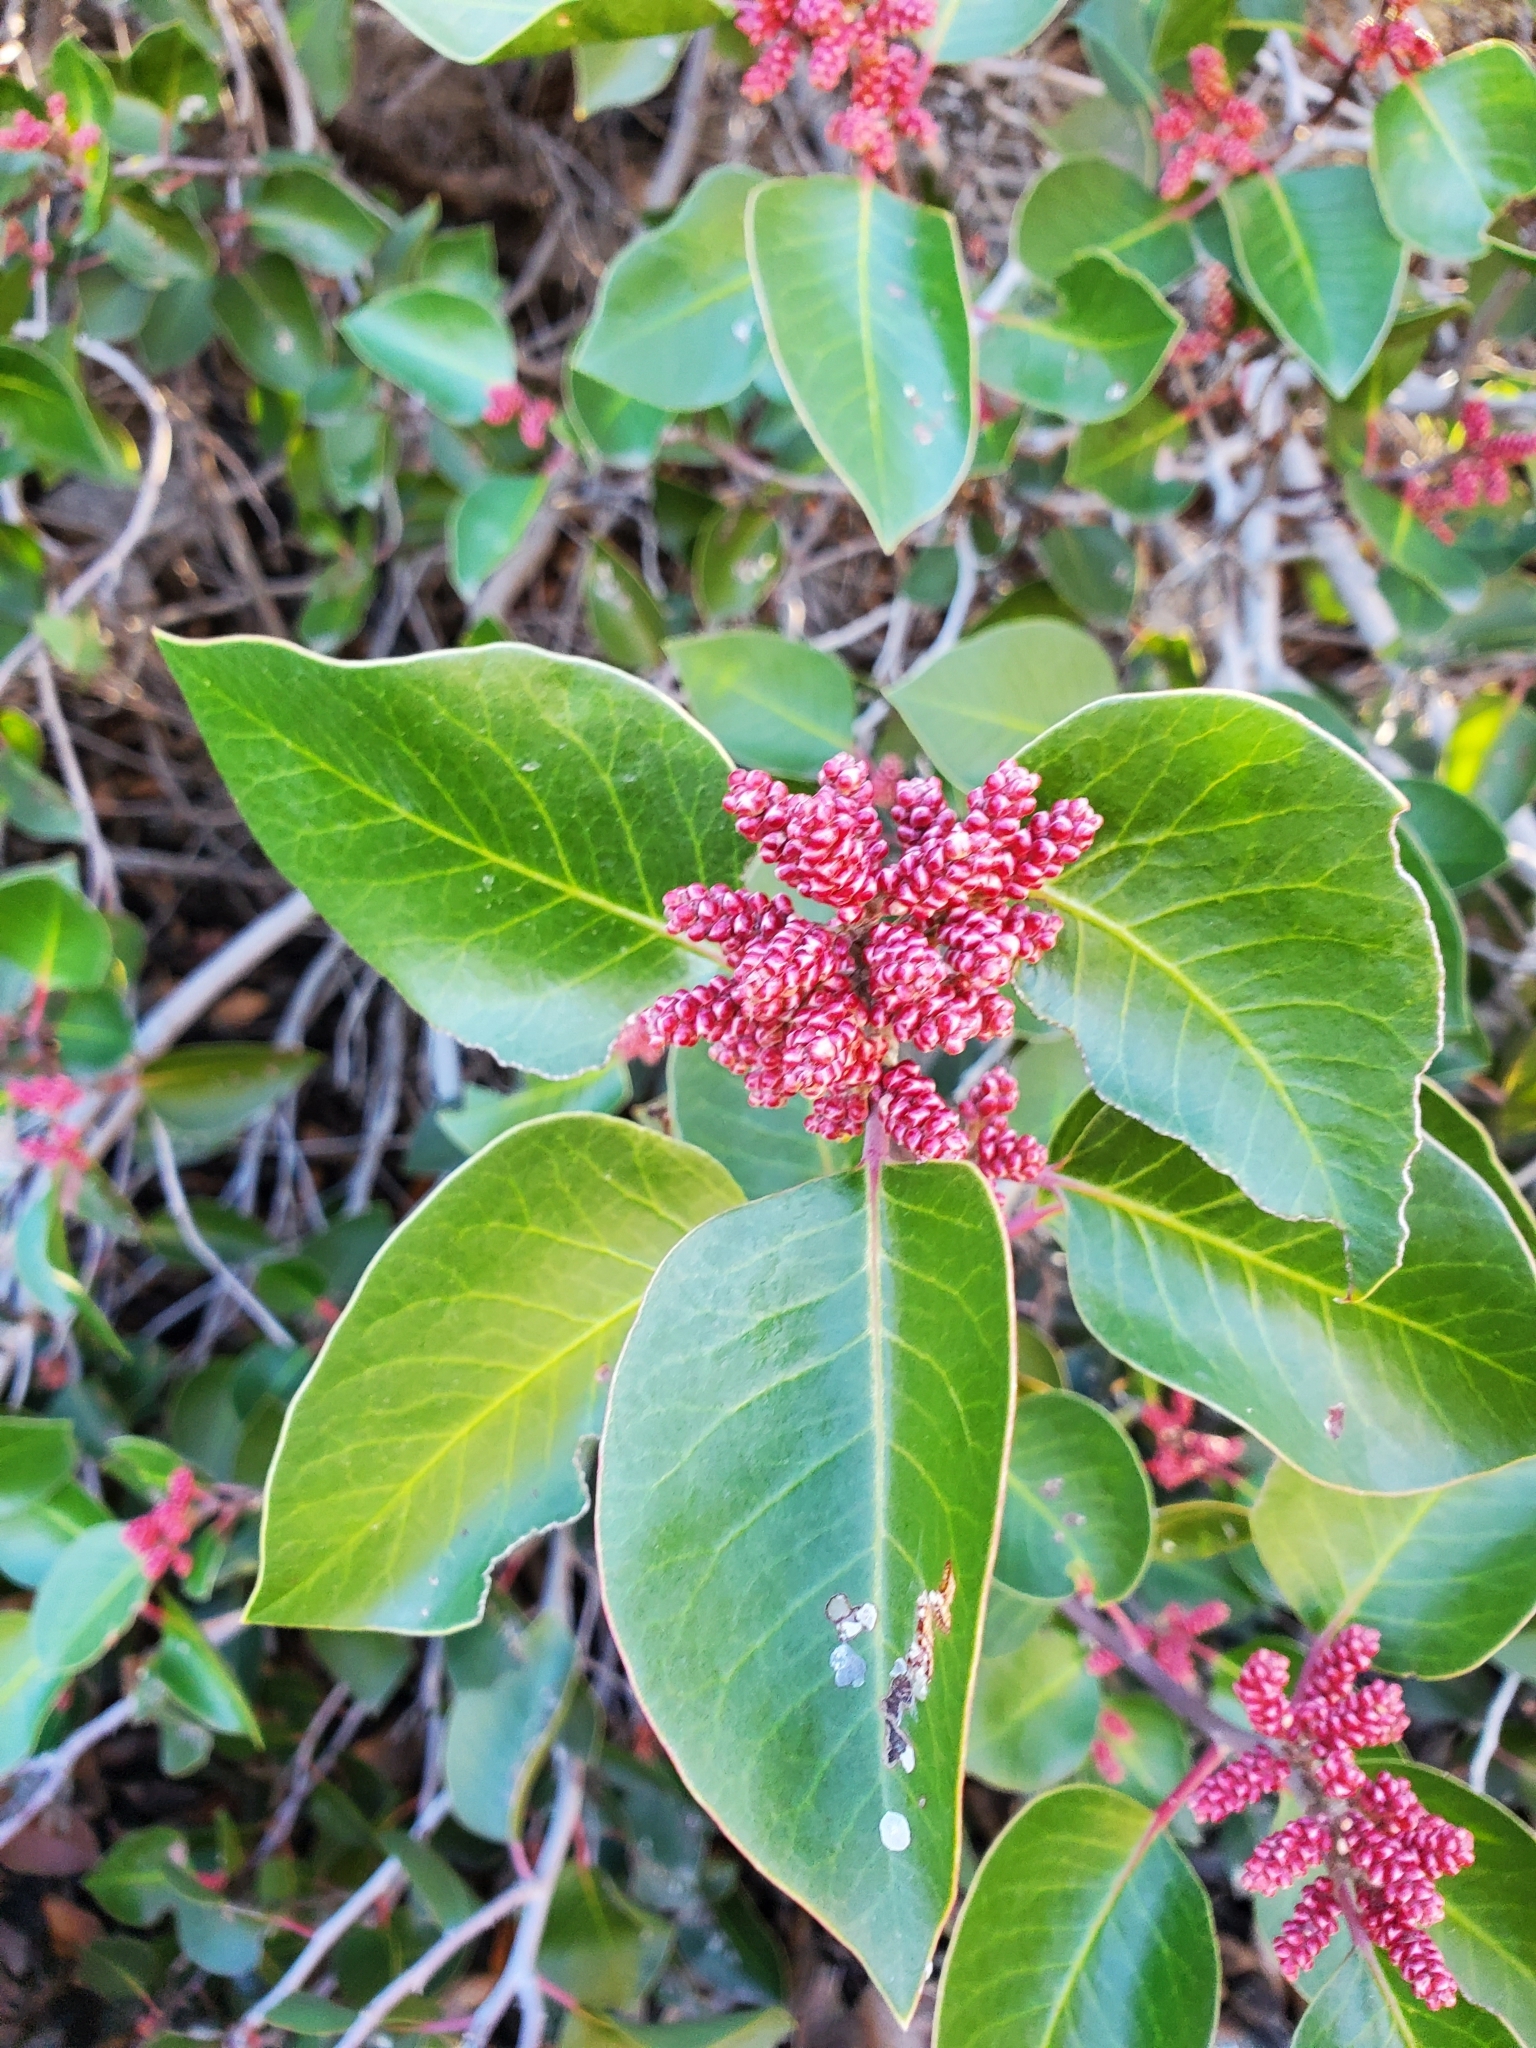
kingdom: Plantae
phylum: Tracheophyta
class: Magnoliopsida
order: Sapindales
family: Anacardiaceae
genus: Rhus
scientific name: Rhus ovata
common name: Sugar sumac
